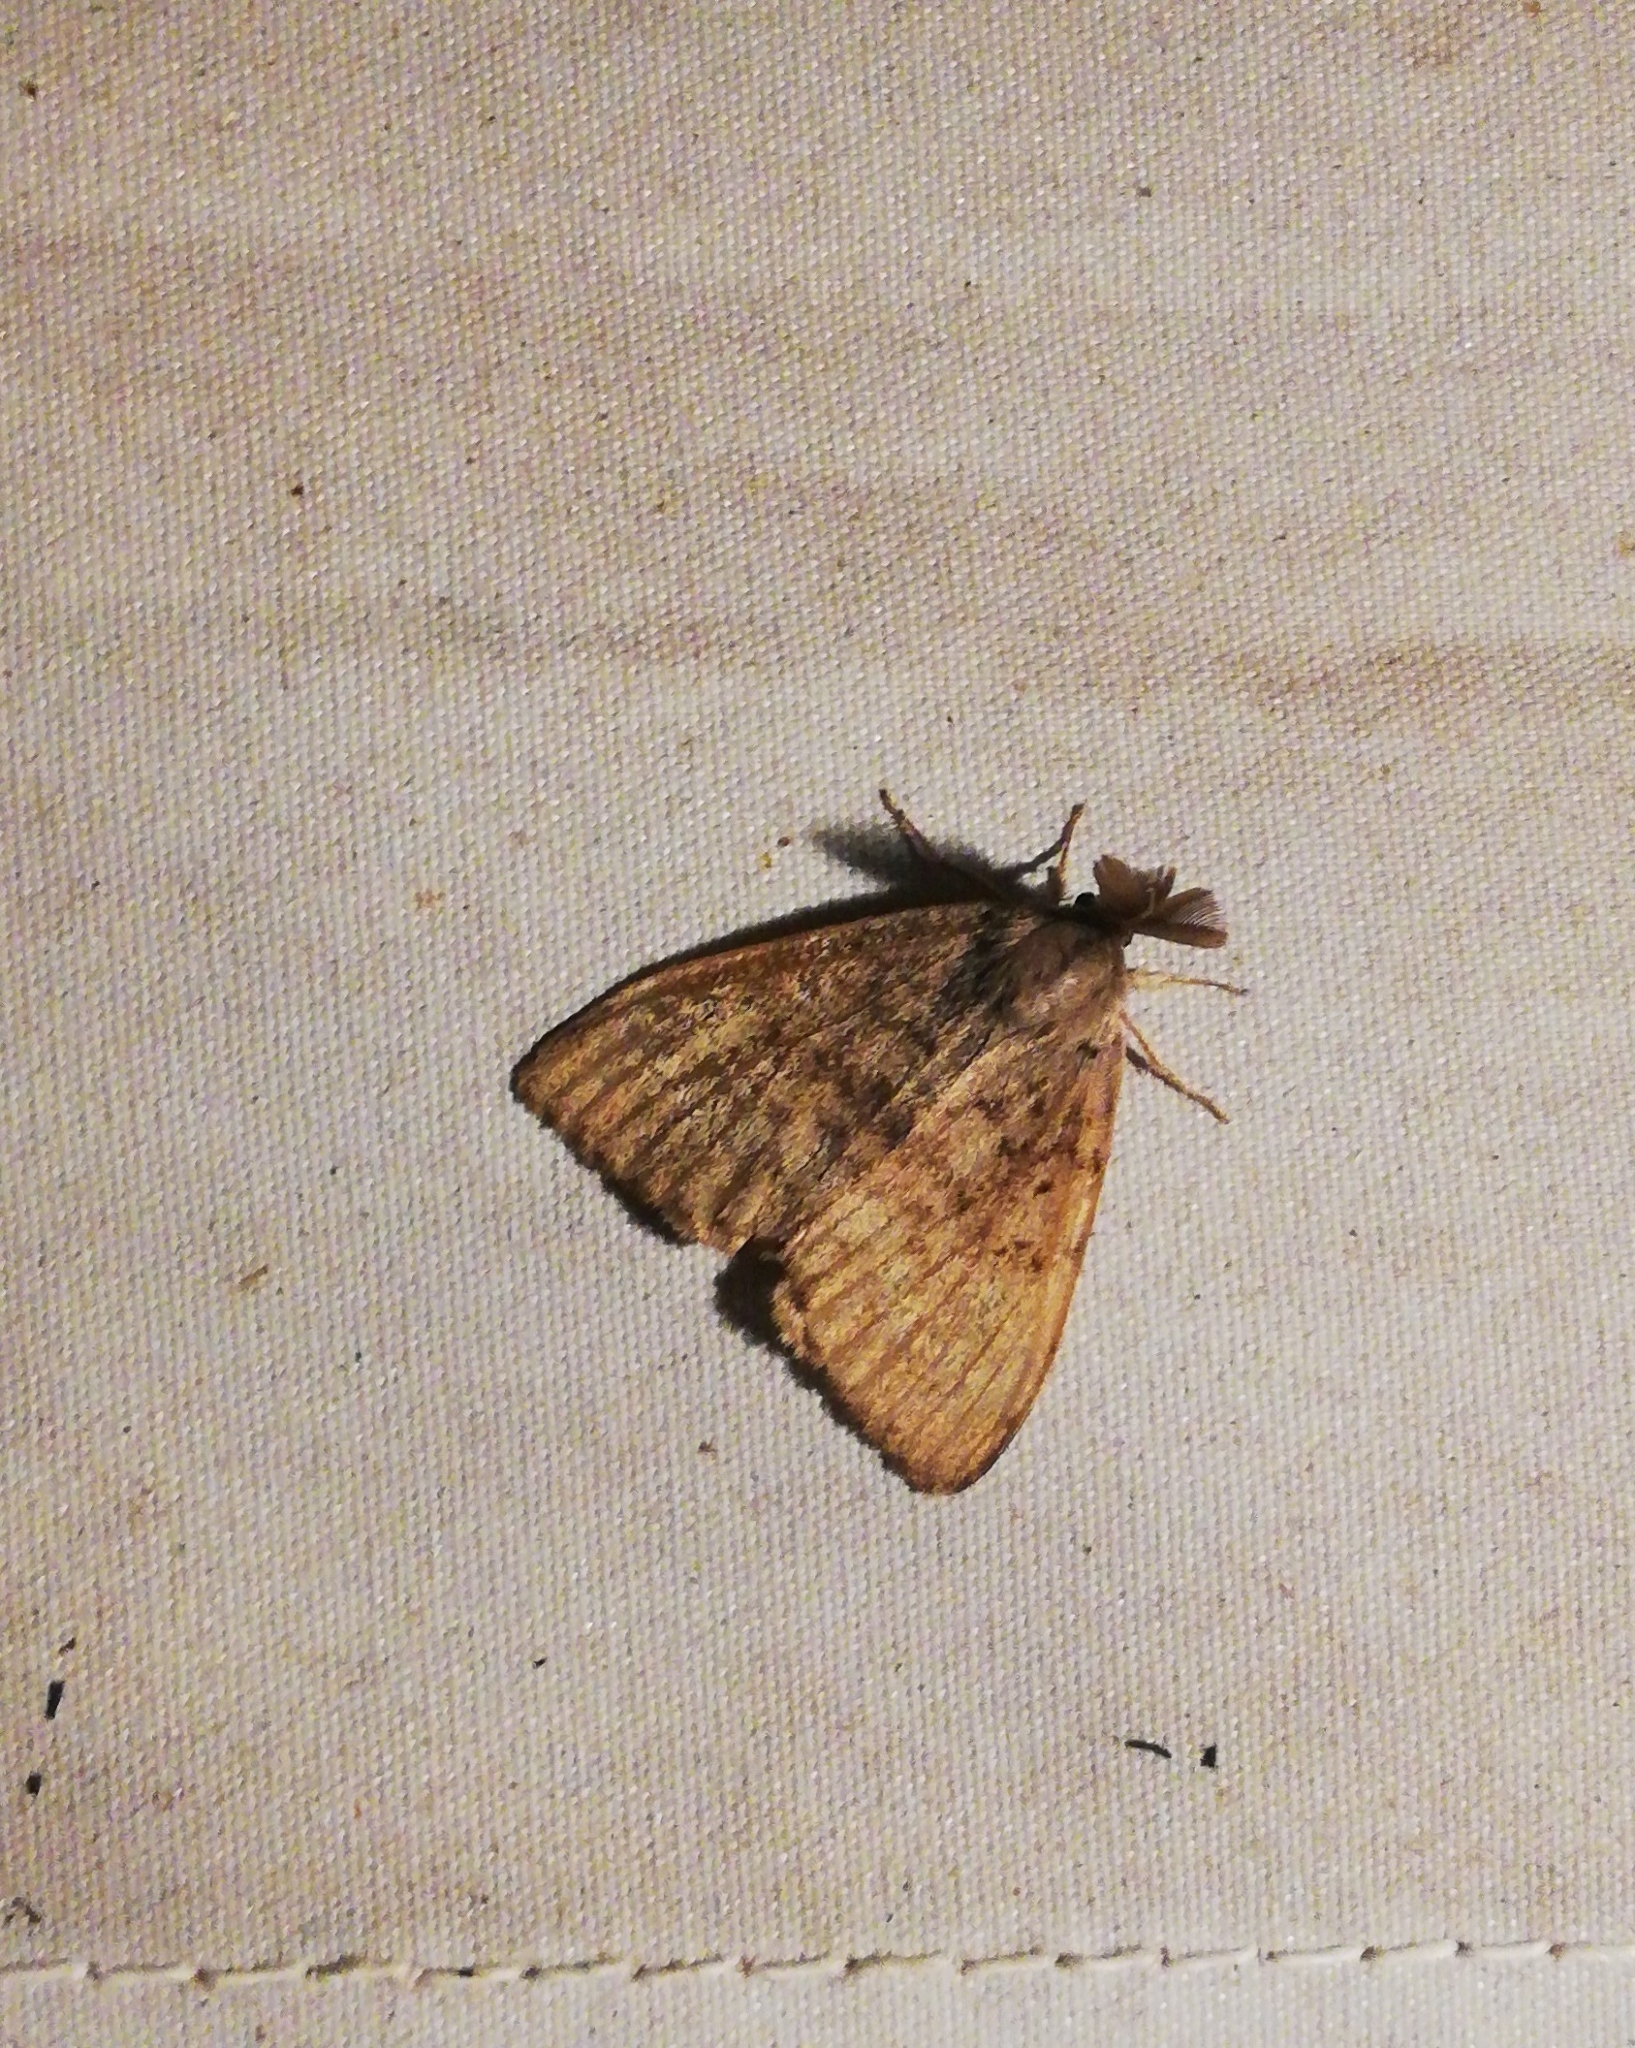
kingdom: Animalia
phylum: Arthropoda
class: Insecta
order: Lepidoptera
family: Erebidae
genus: Lymantria
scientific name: Lymantria dispar
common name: Gypsy moth
